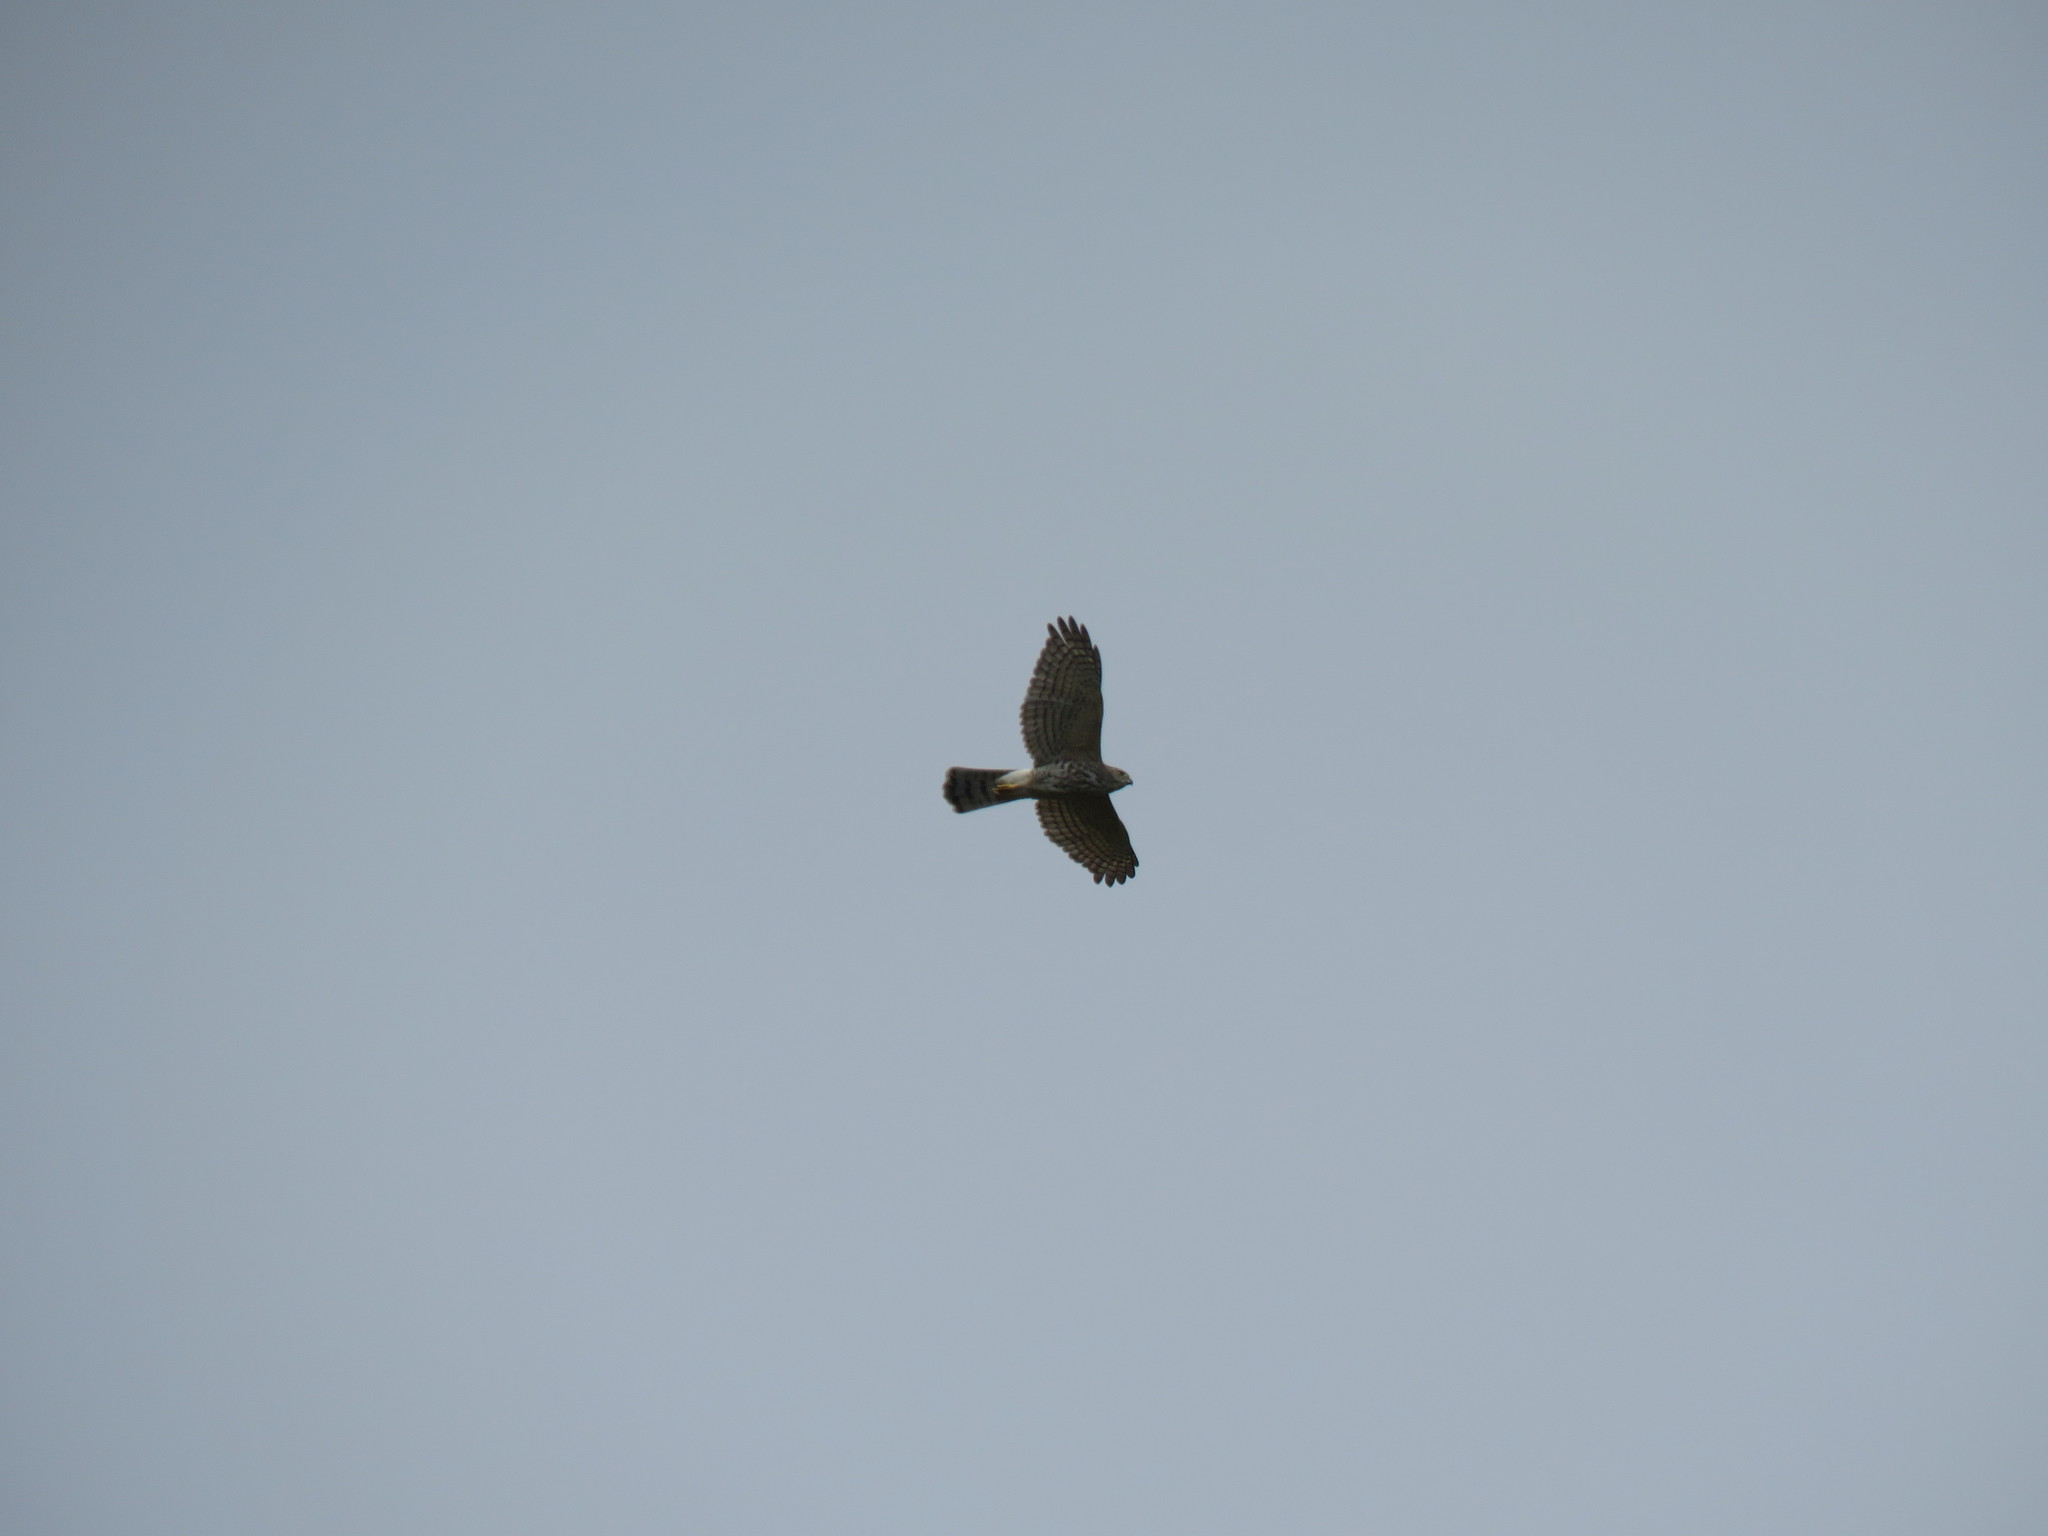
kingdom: Animalia
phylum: Chordata
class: Aves
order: Accipitriformes
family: Accipitridae
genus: Accipiter
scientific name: Accipiter badius
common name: Shikra
